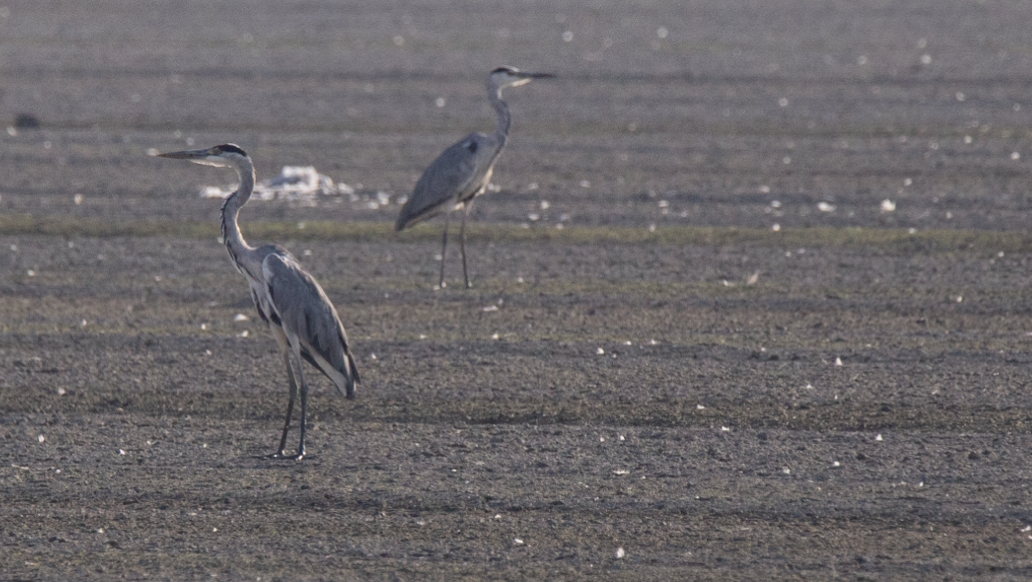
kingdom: Animalia
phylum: Chordata
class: Aves
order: Pelecaniformes
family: Ardeidae
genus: Ardea
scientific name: Ardea cinerea
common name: Grey heron
